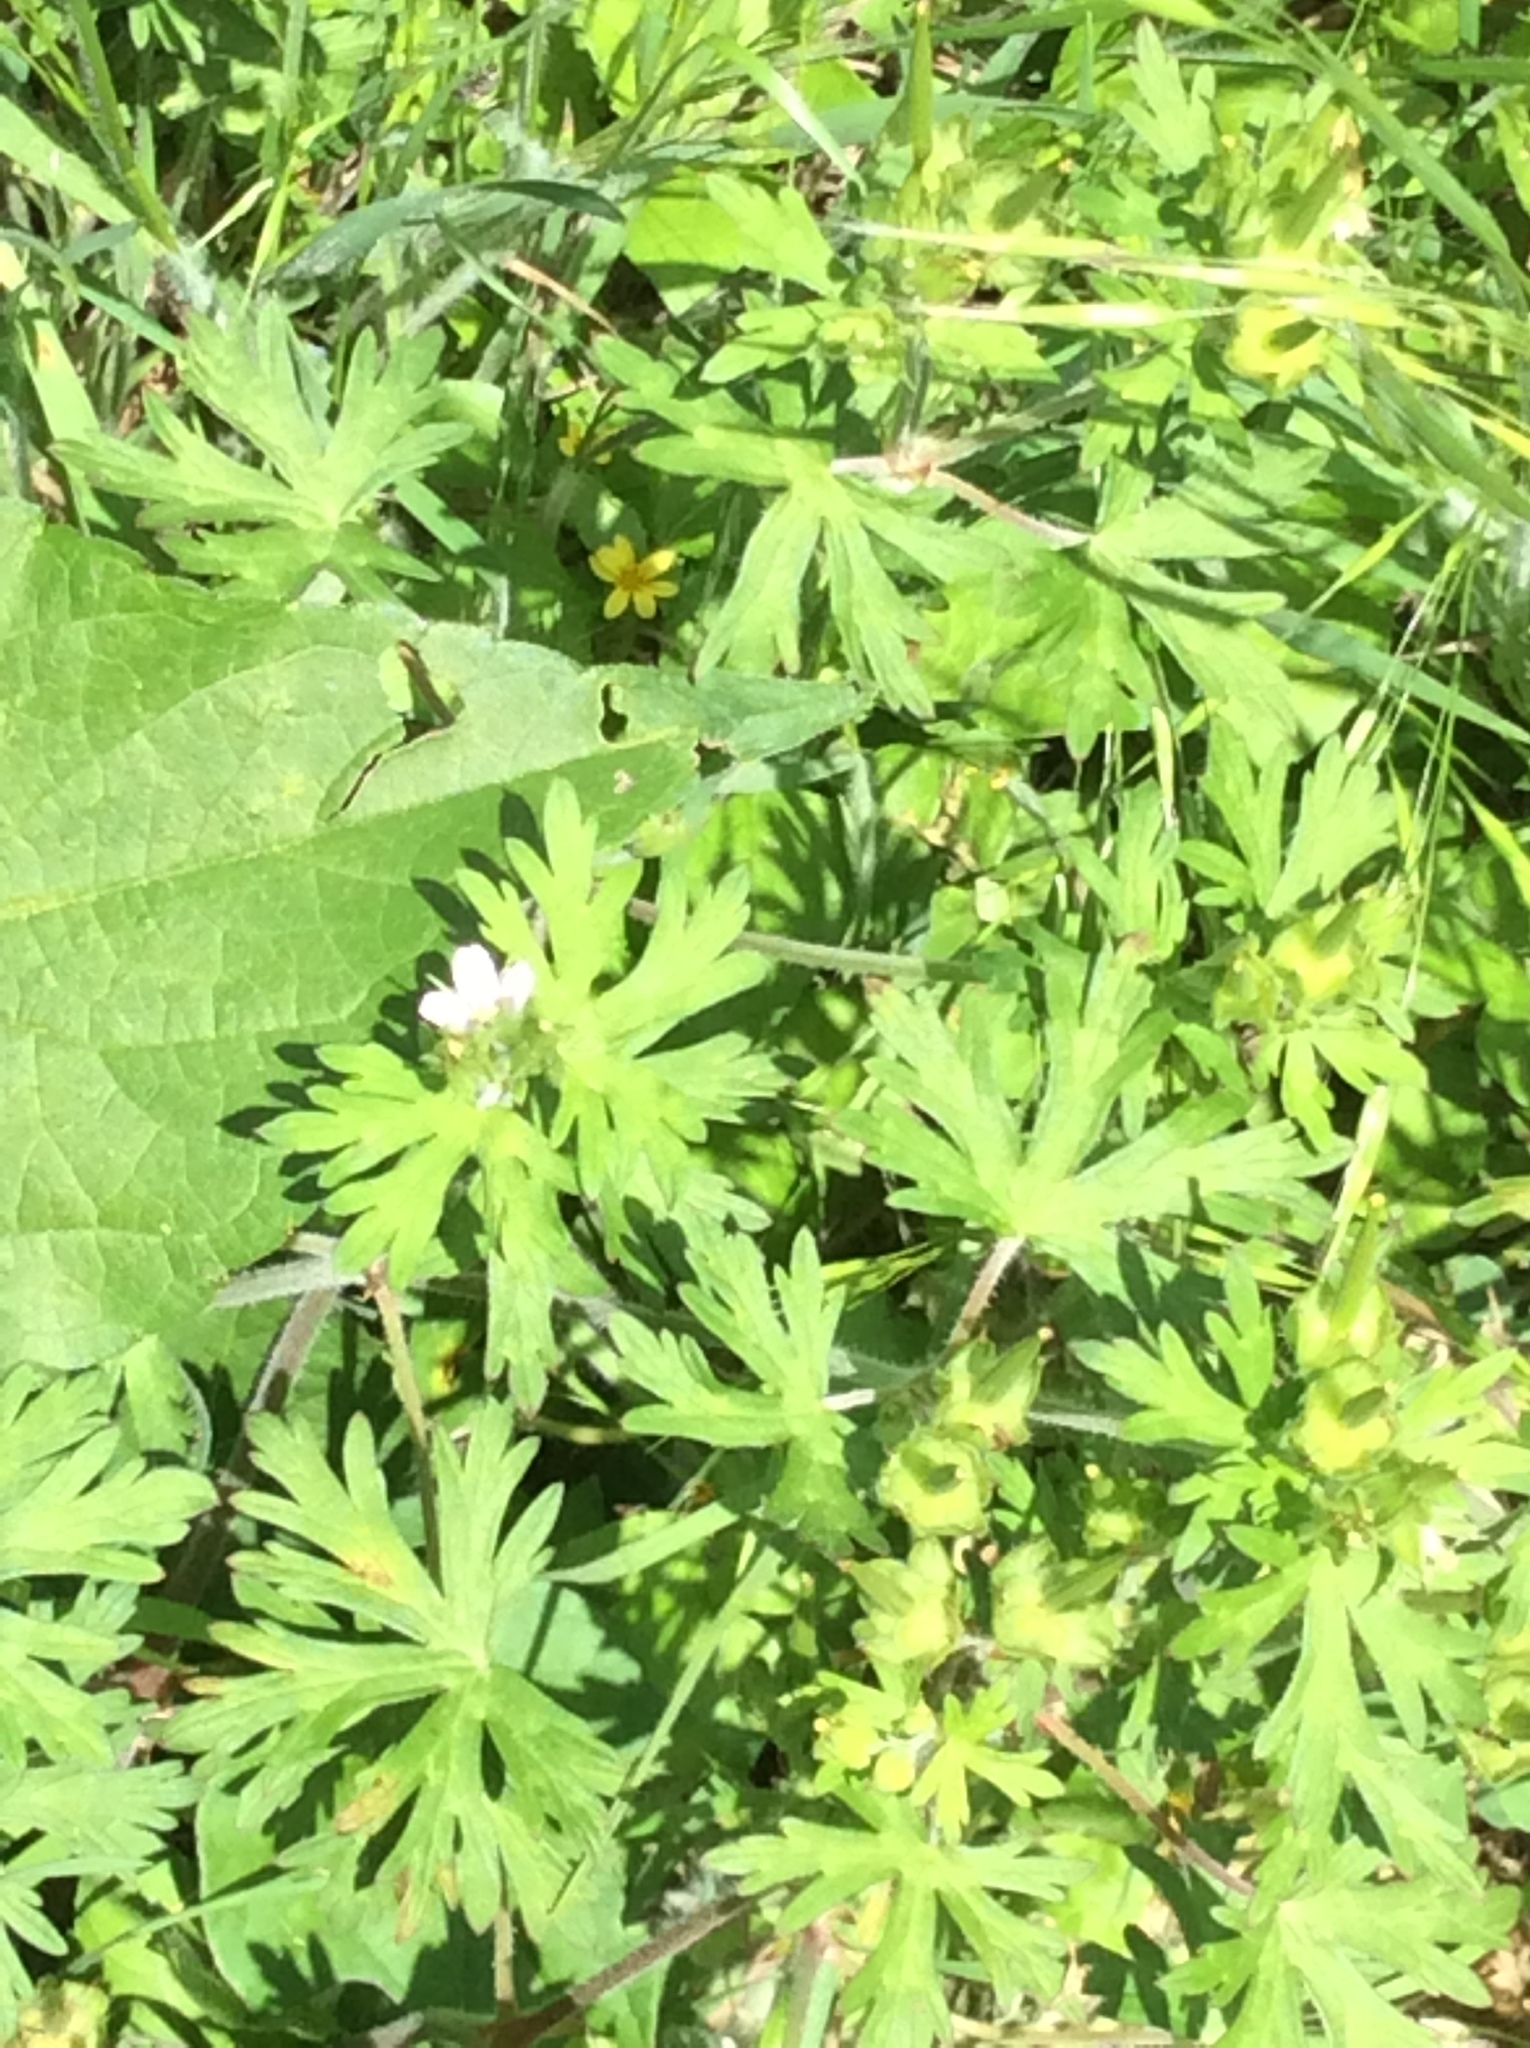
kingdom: Plantae
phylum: Tracheophyta
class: Magnoliopsida
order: Geraniales
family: Geraniaceae
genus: Geranium
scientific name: Geranium carolinianum
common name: Carolina crane's-bill
